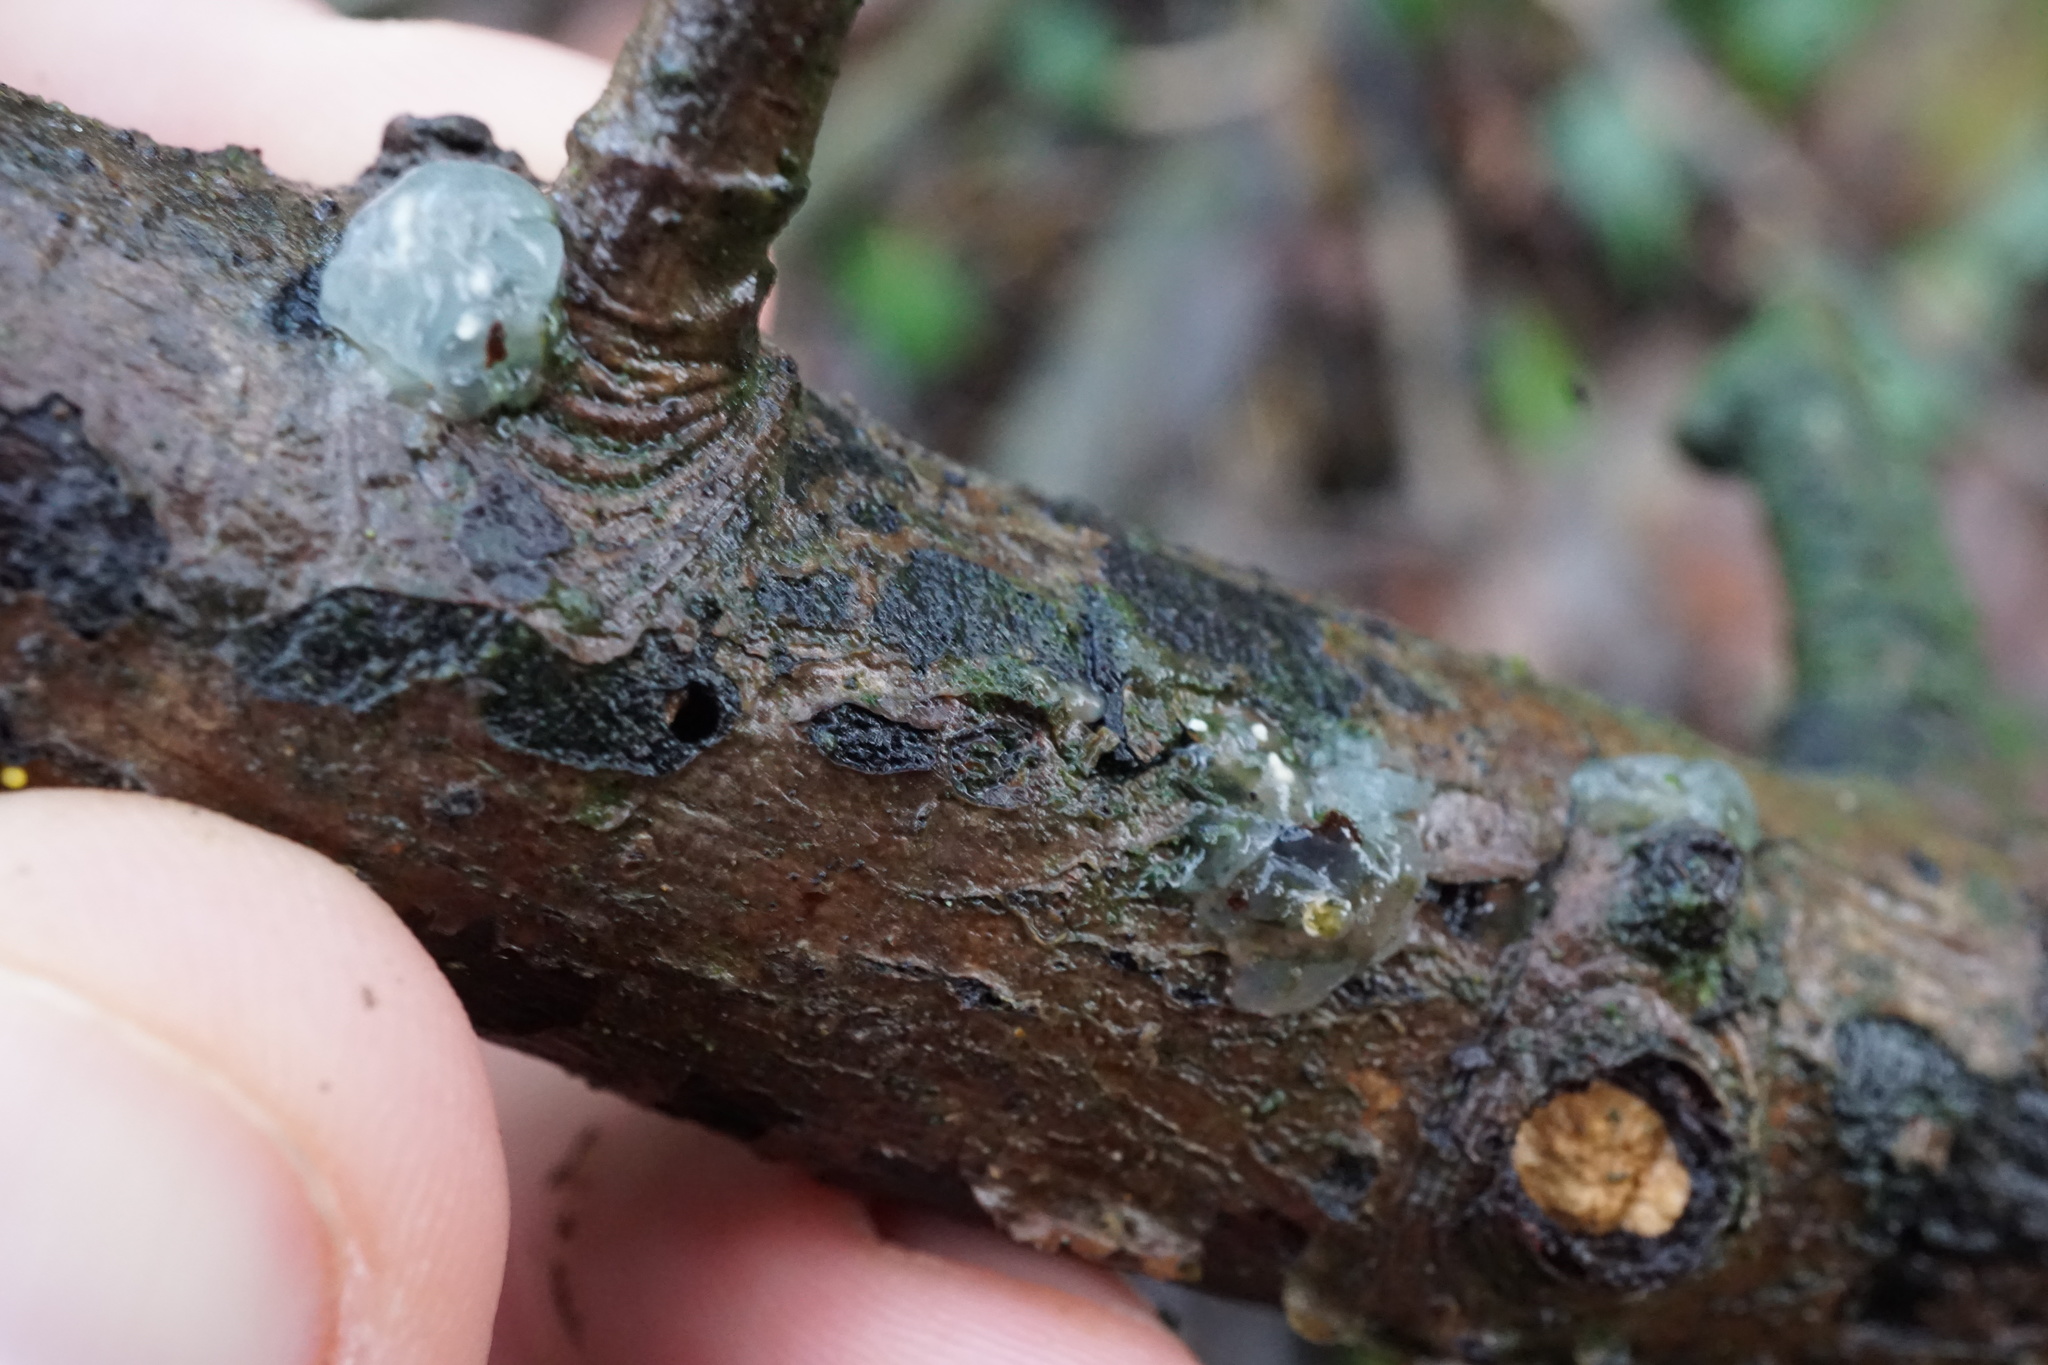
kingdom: Fungi
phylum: Basidiomycota
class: Agaricomycetes
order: Auriculariales
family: Hyaloriaceae
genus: Myxarium
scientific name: Myxarium nucleatum
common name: Crystal brain fungus
